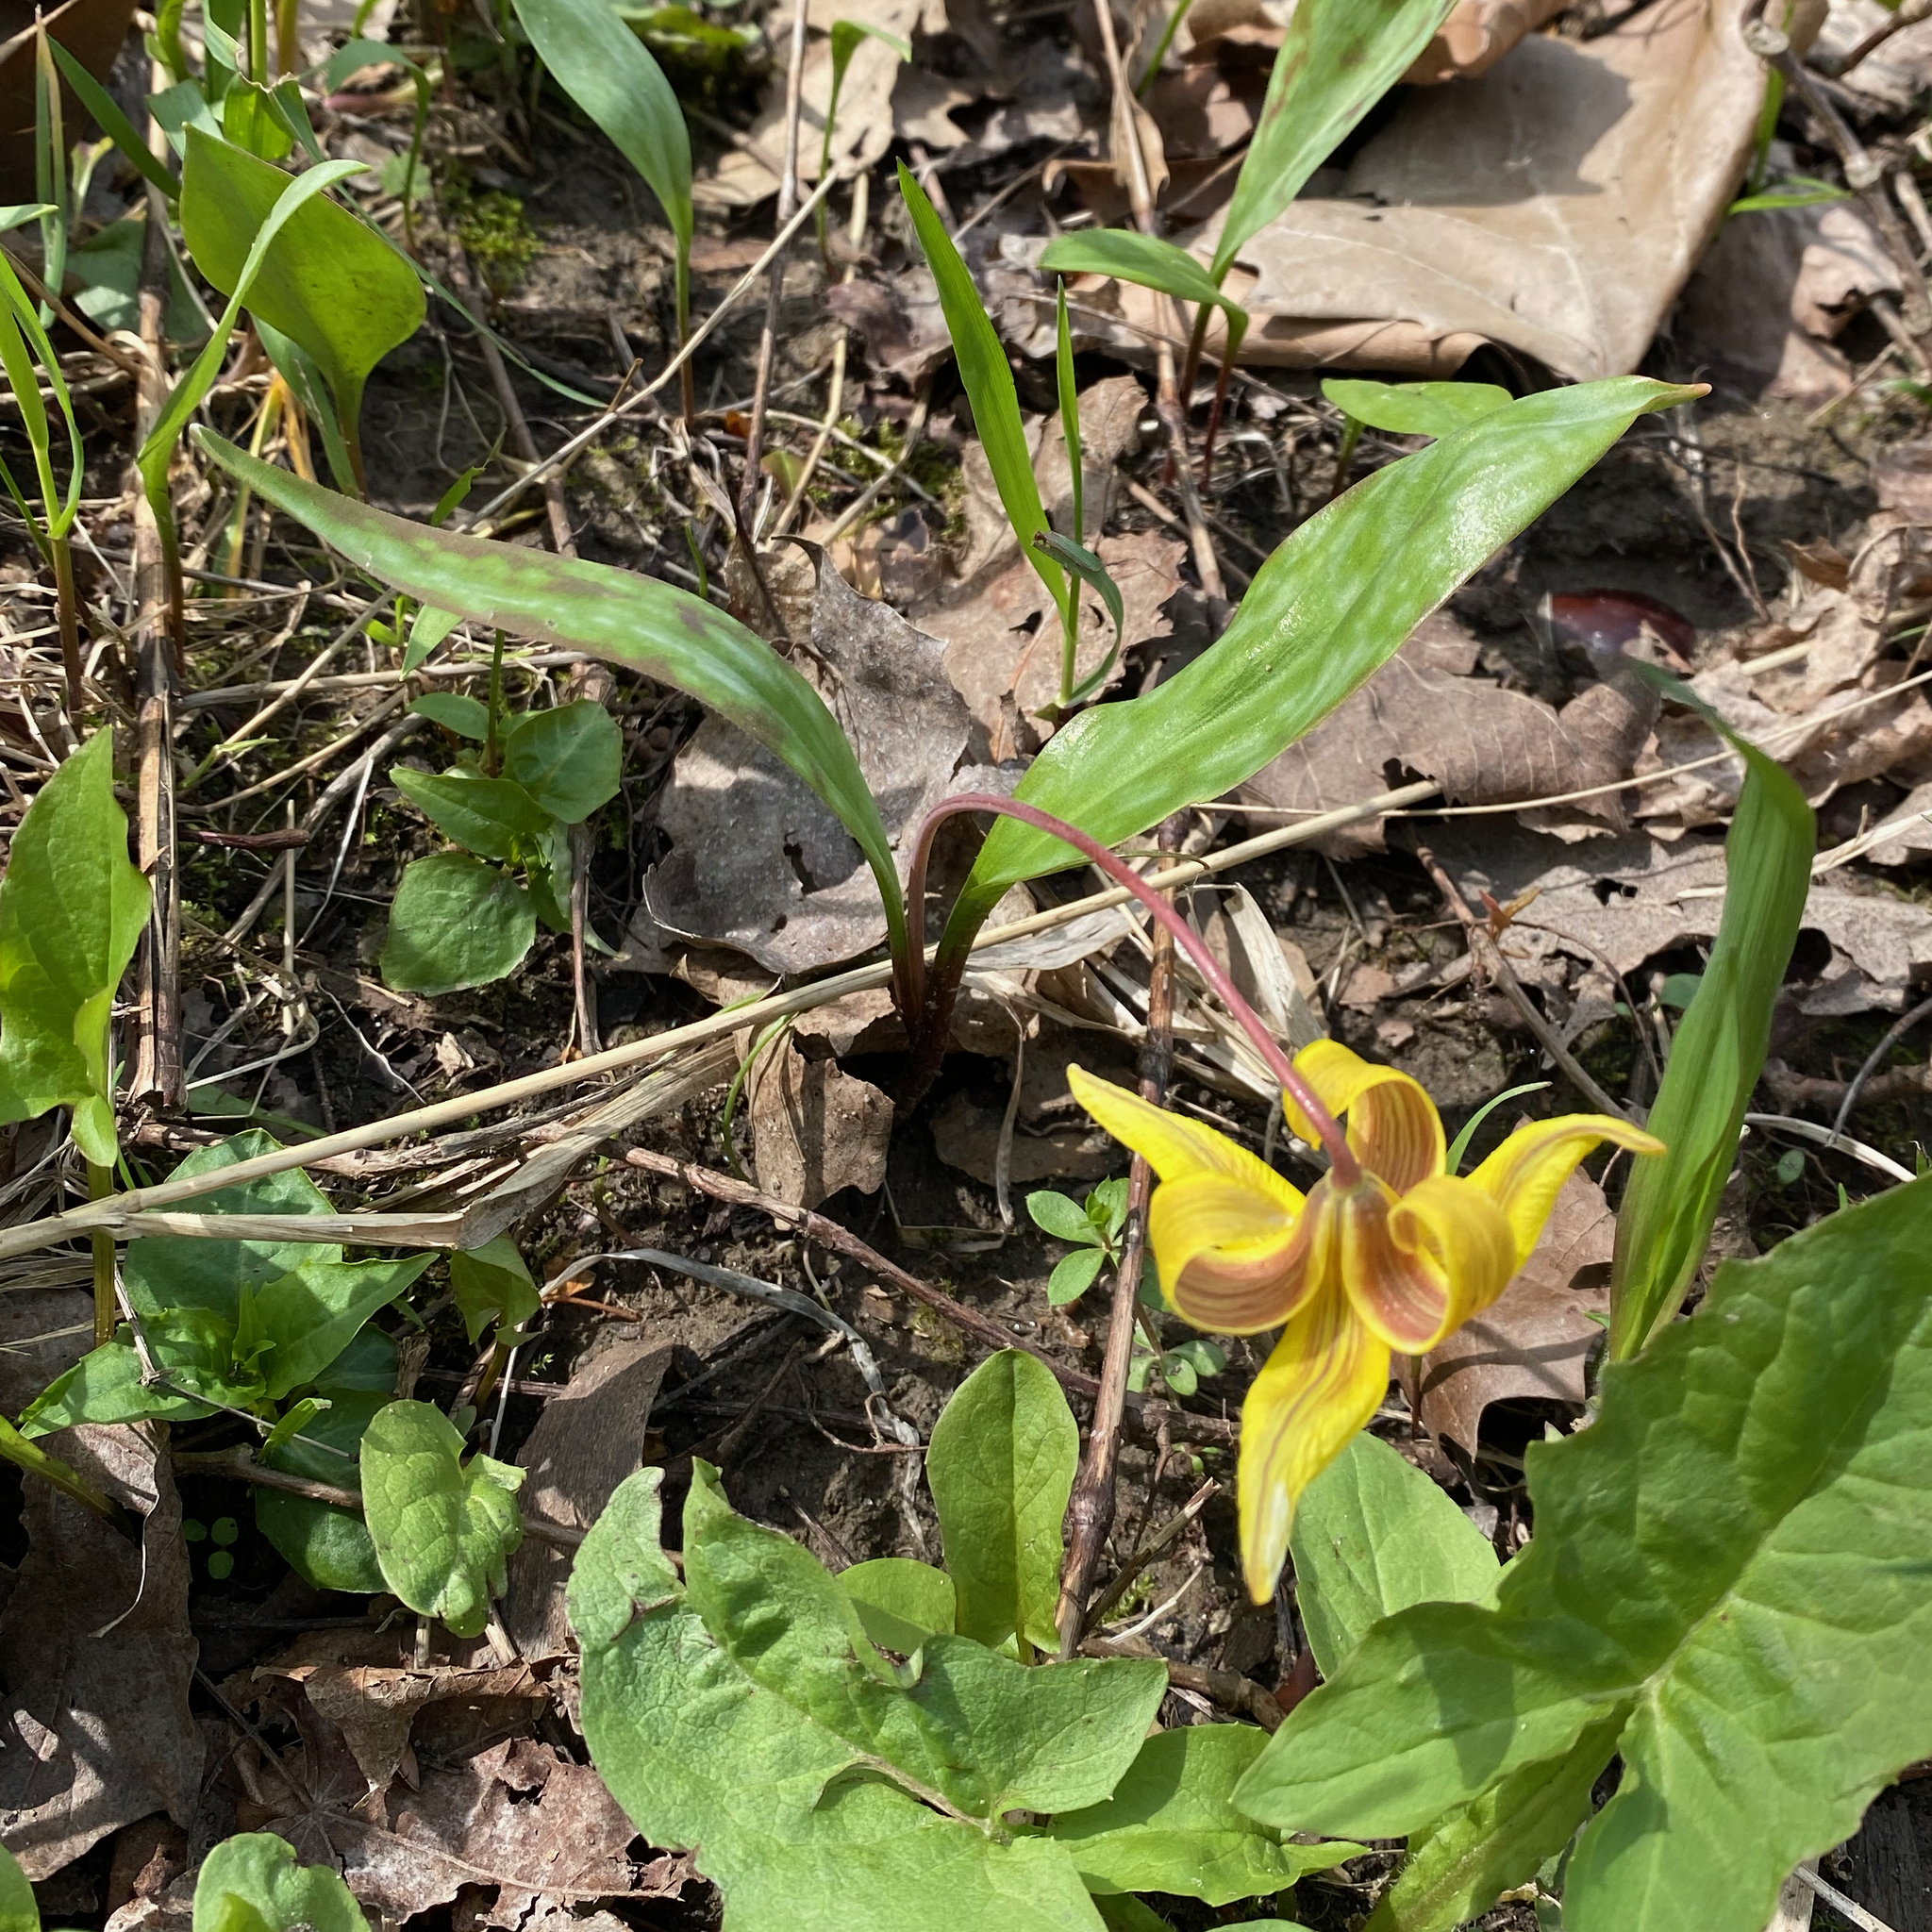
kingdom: Plantae
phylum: Tracheophyta
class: Liliopsida
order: Liliales
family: Liliaceae
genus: Erythronium
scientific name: Erythronium americanum
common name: Yellow adder's-tongue
